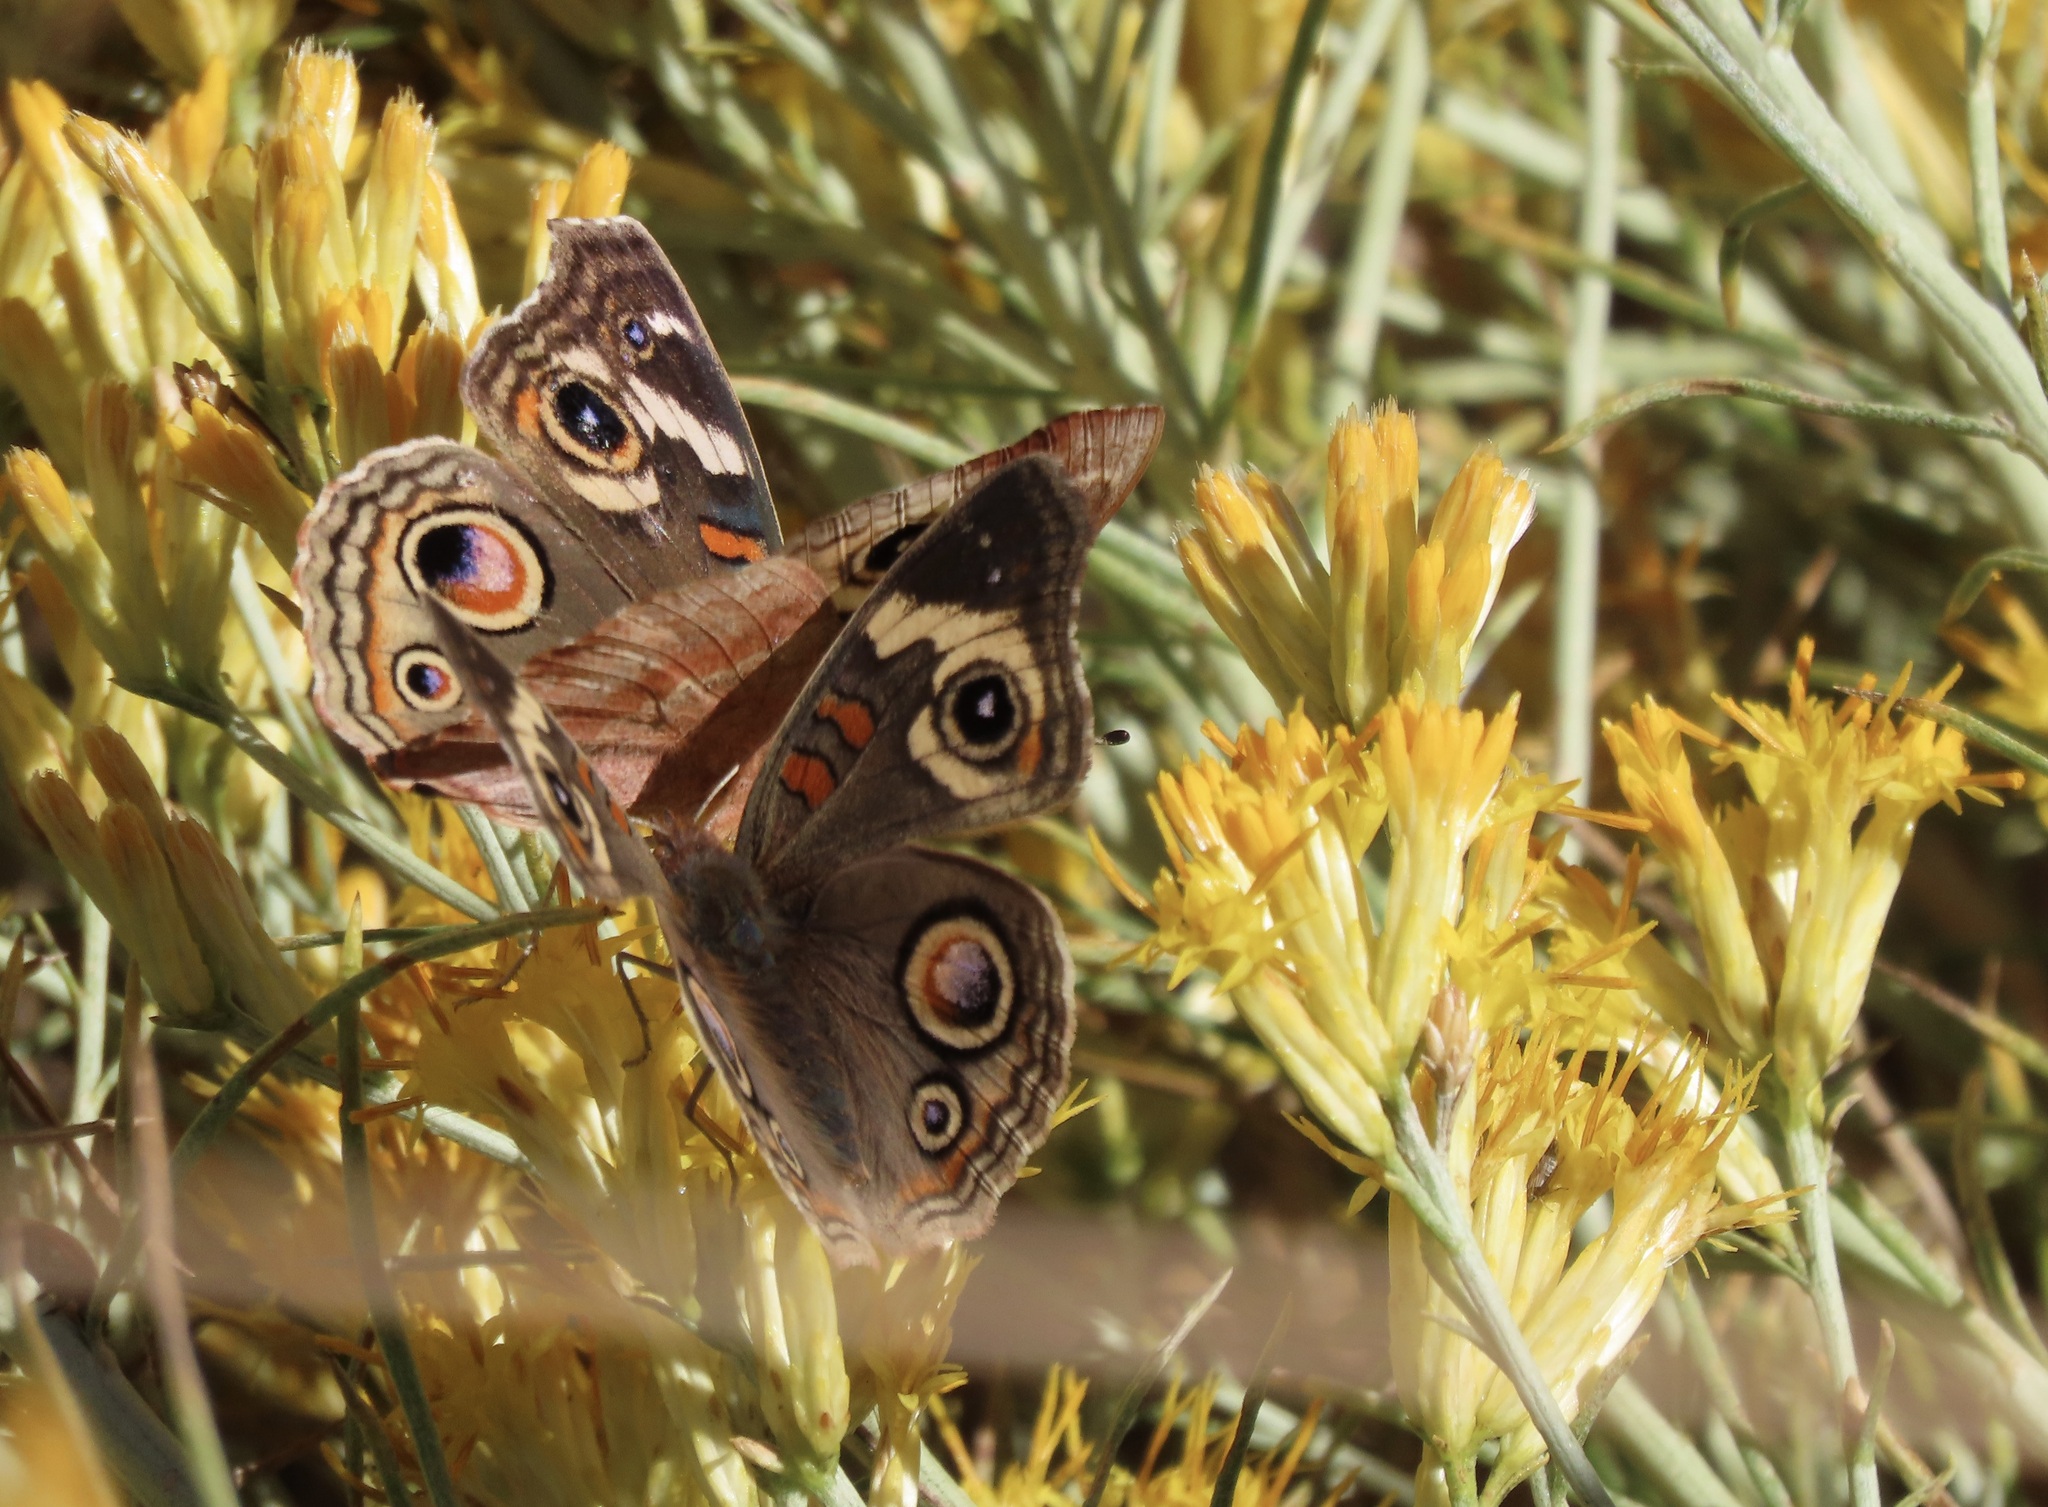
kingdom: Animalia
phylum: Arthropoda
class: Insecta
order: Lepidoptera
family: Nymphalidae
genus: Junonia
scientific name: Junonia grisea
